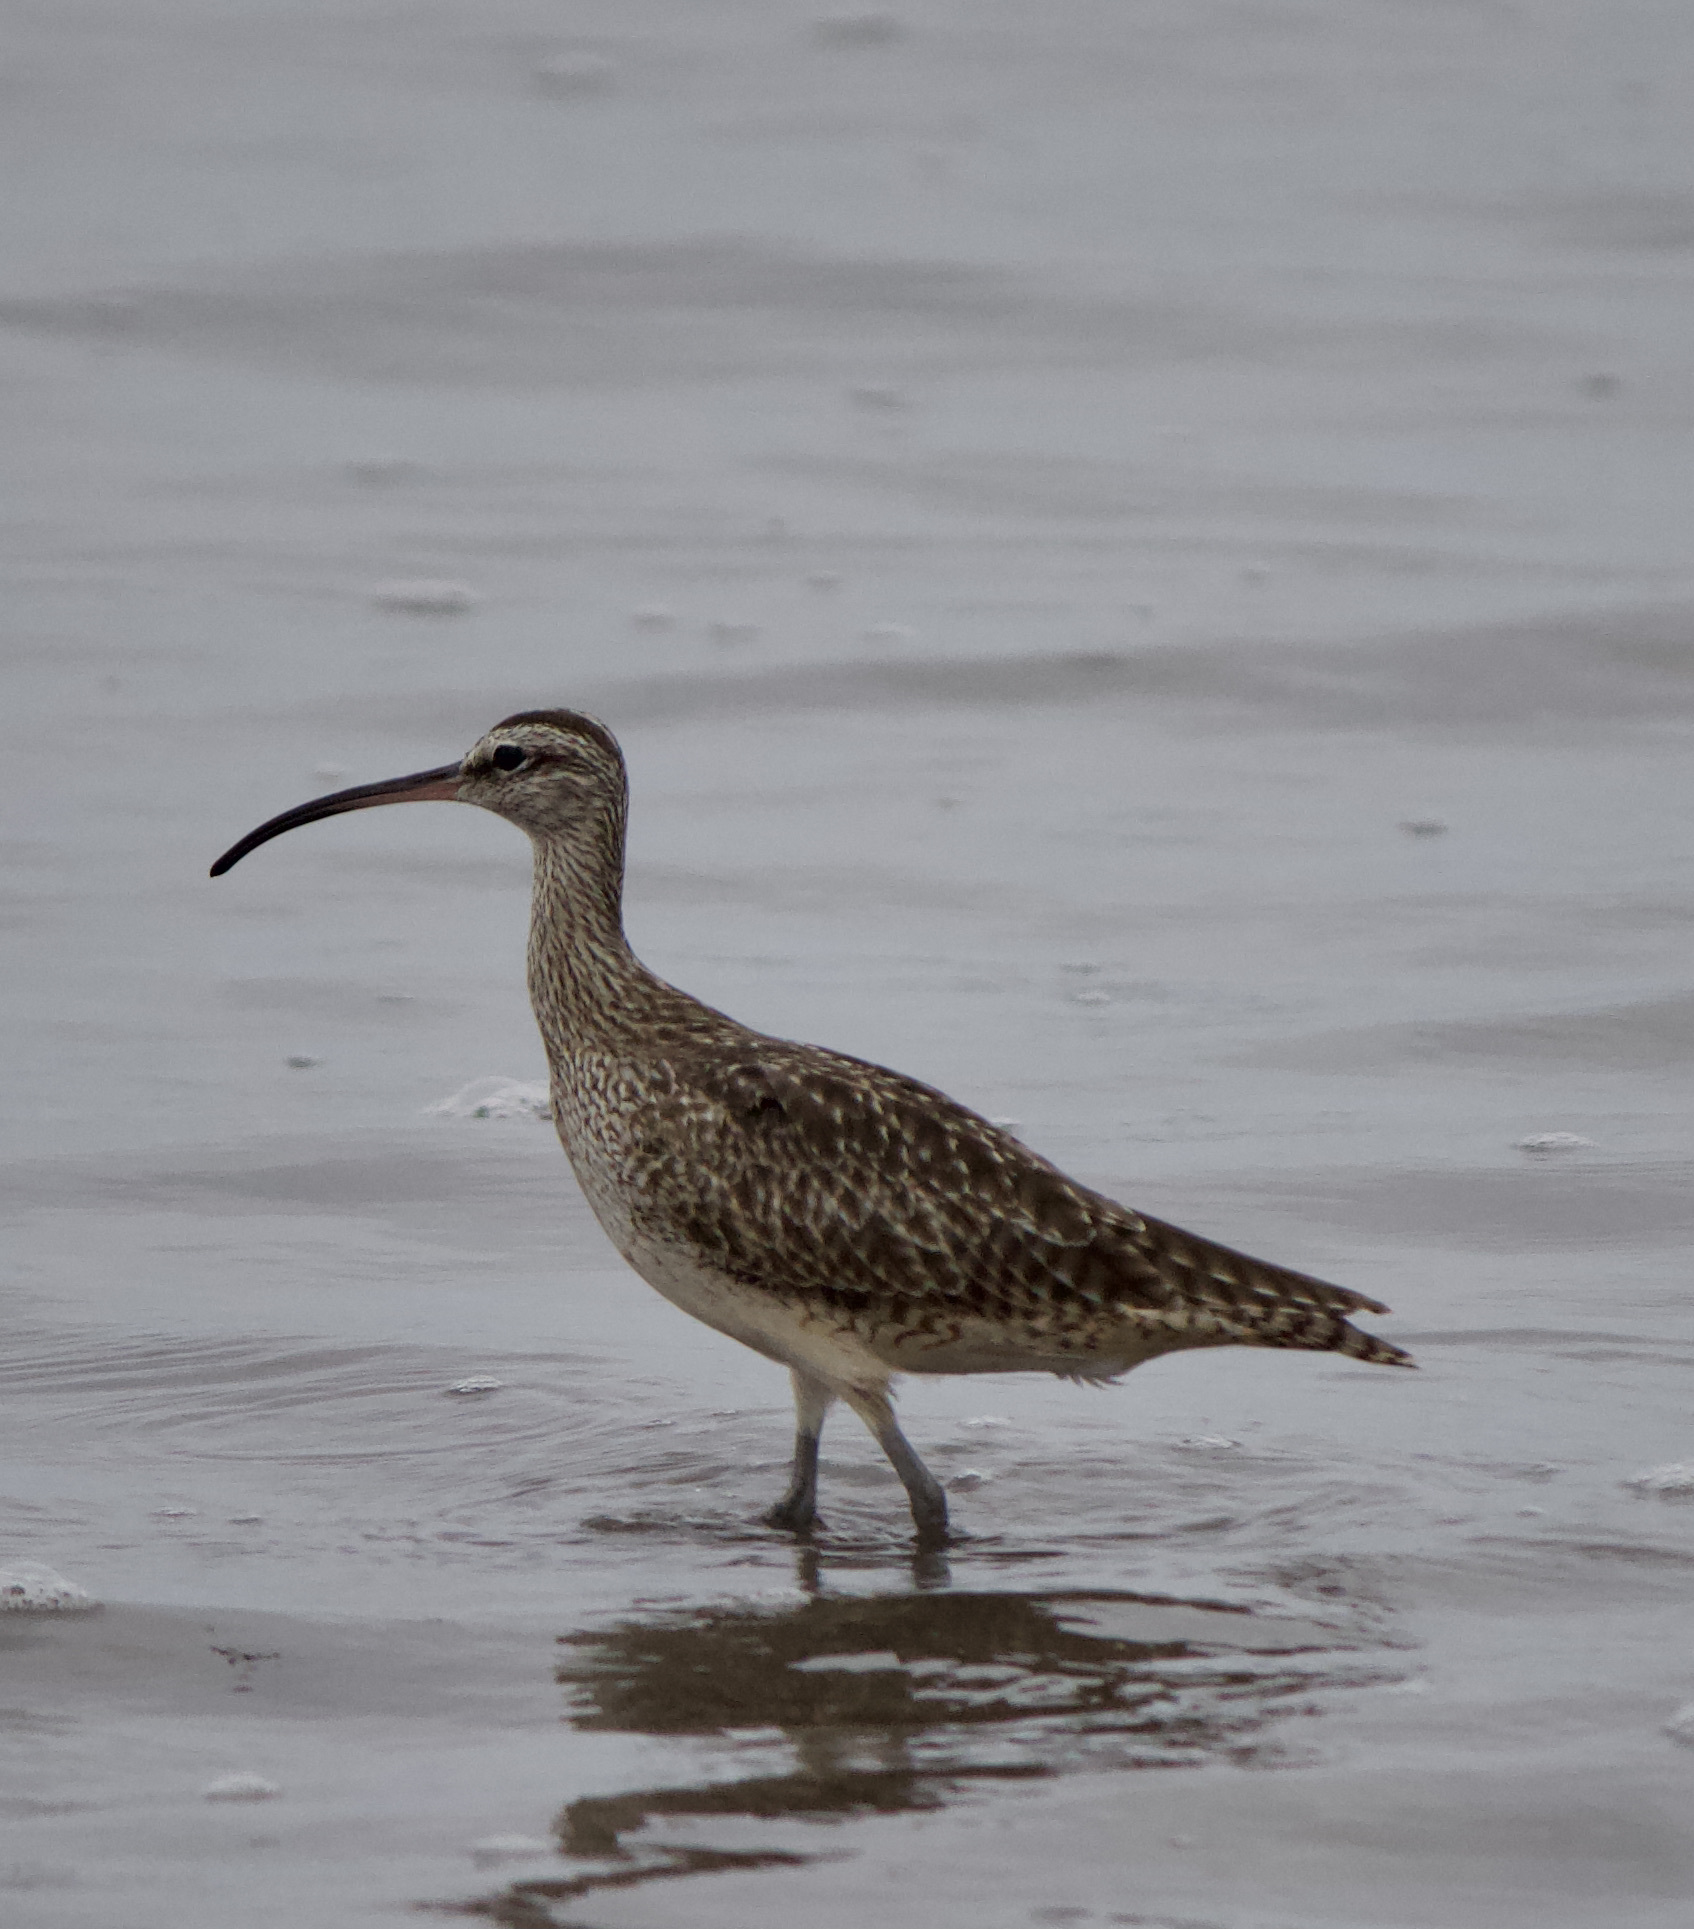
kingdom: Animalia
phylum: Chordata
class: Aves
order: Charadriiformes
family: Scolopacidae
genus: Numenius
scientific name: Numenius phaeopus
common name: Whimbrel
